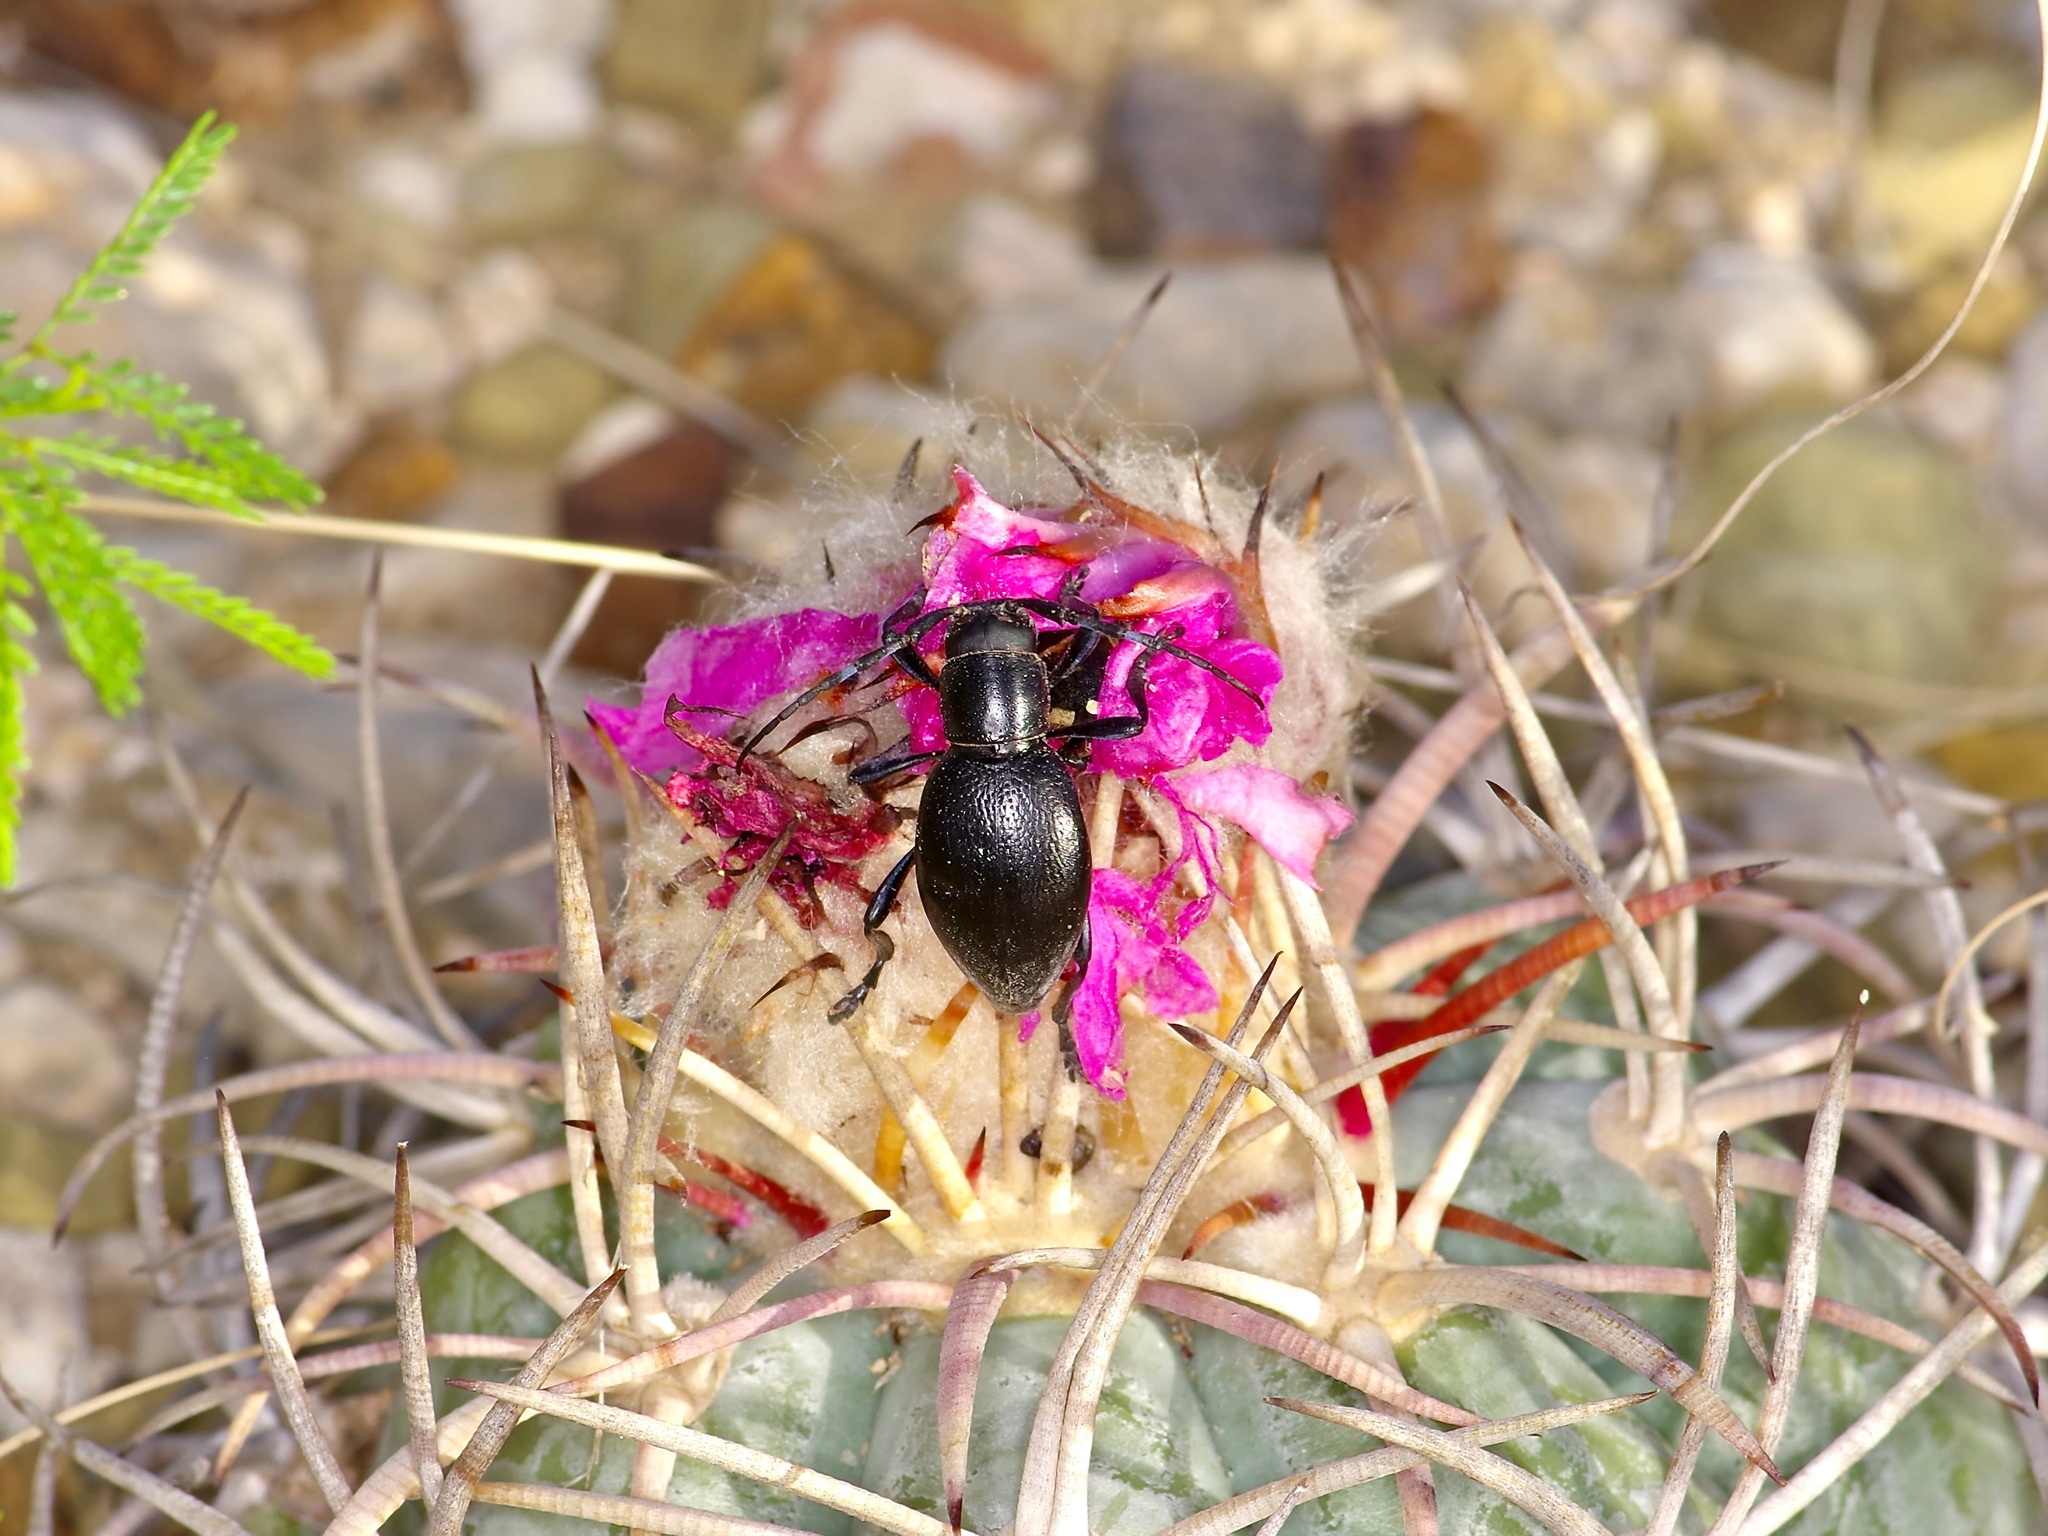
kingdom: Animalia
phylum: Arthropoda
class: Insecta
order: Coleoptera
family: Cerambycidae
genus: Moneilema
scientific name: Moneilema armatum
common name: Long-horned beetle
